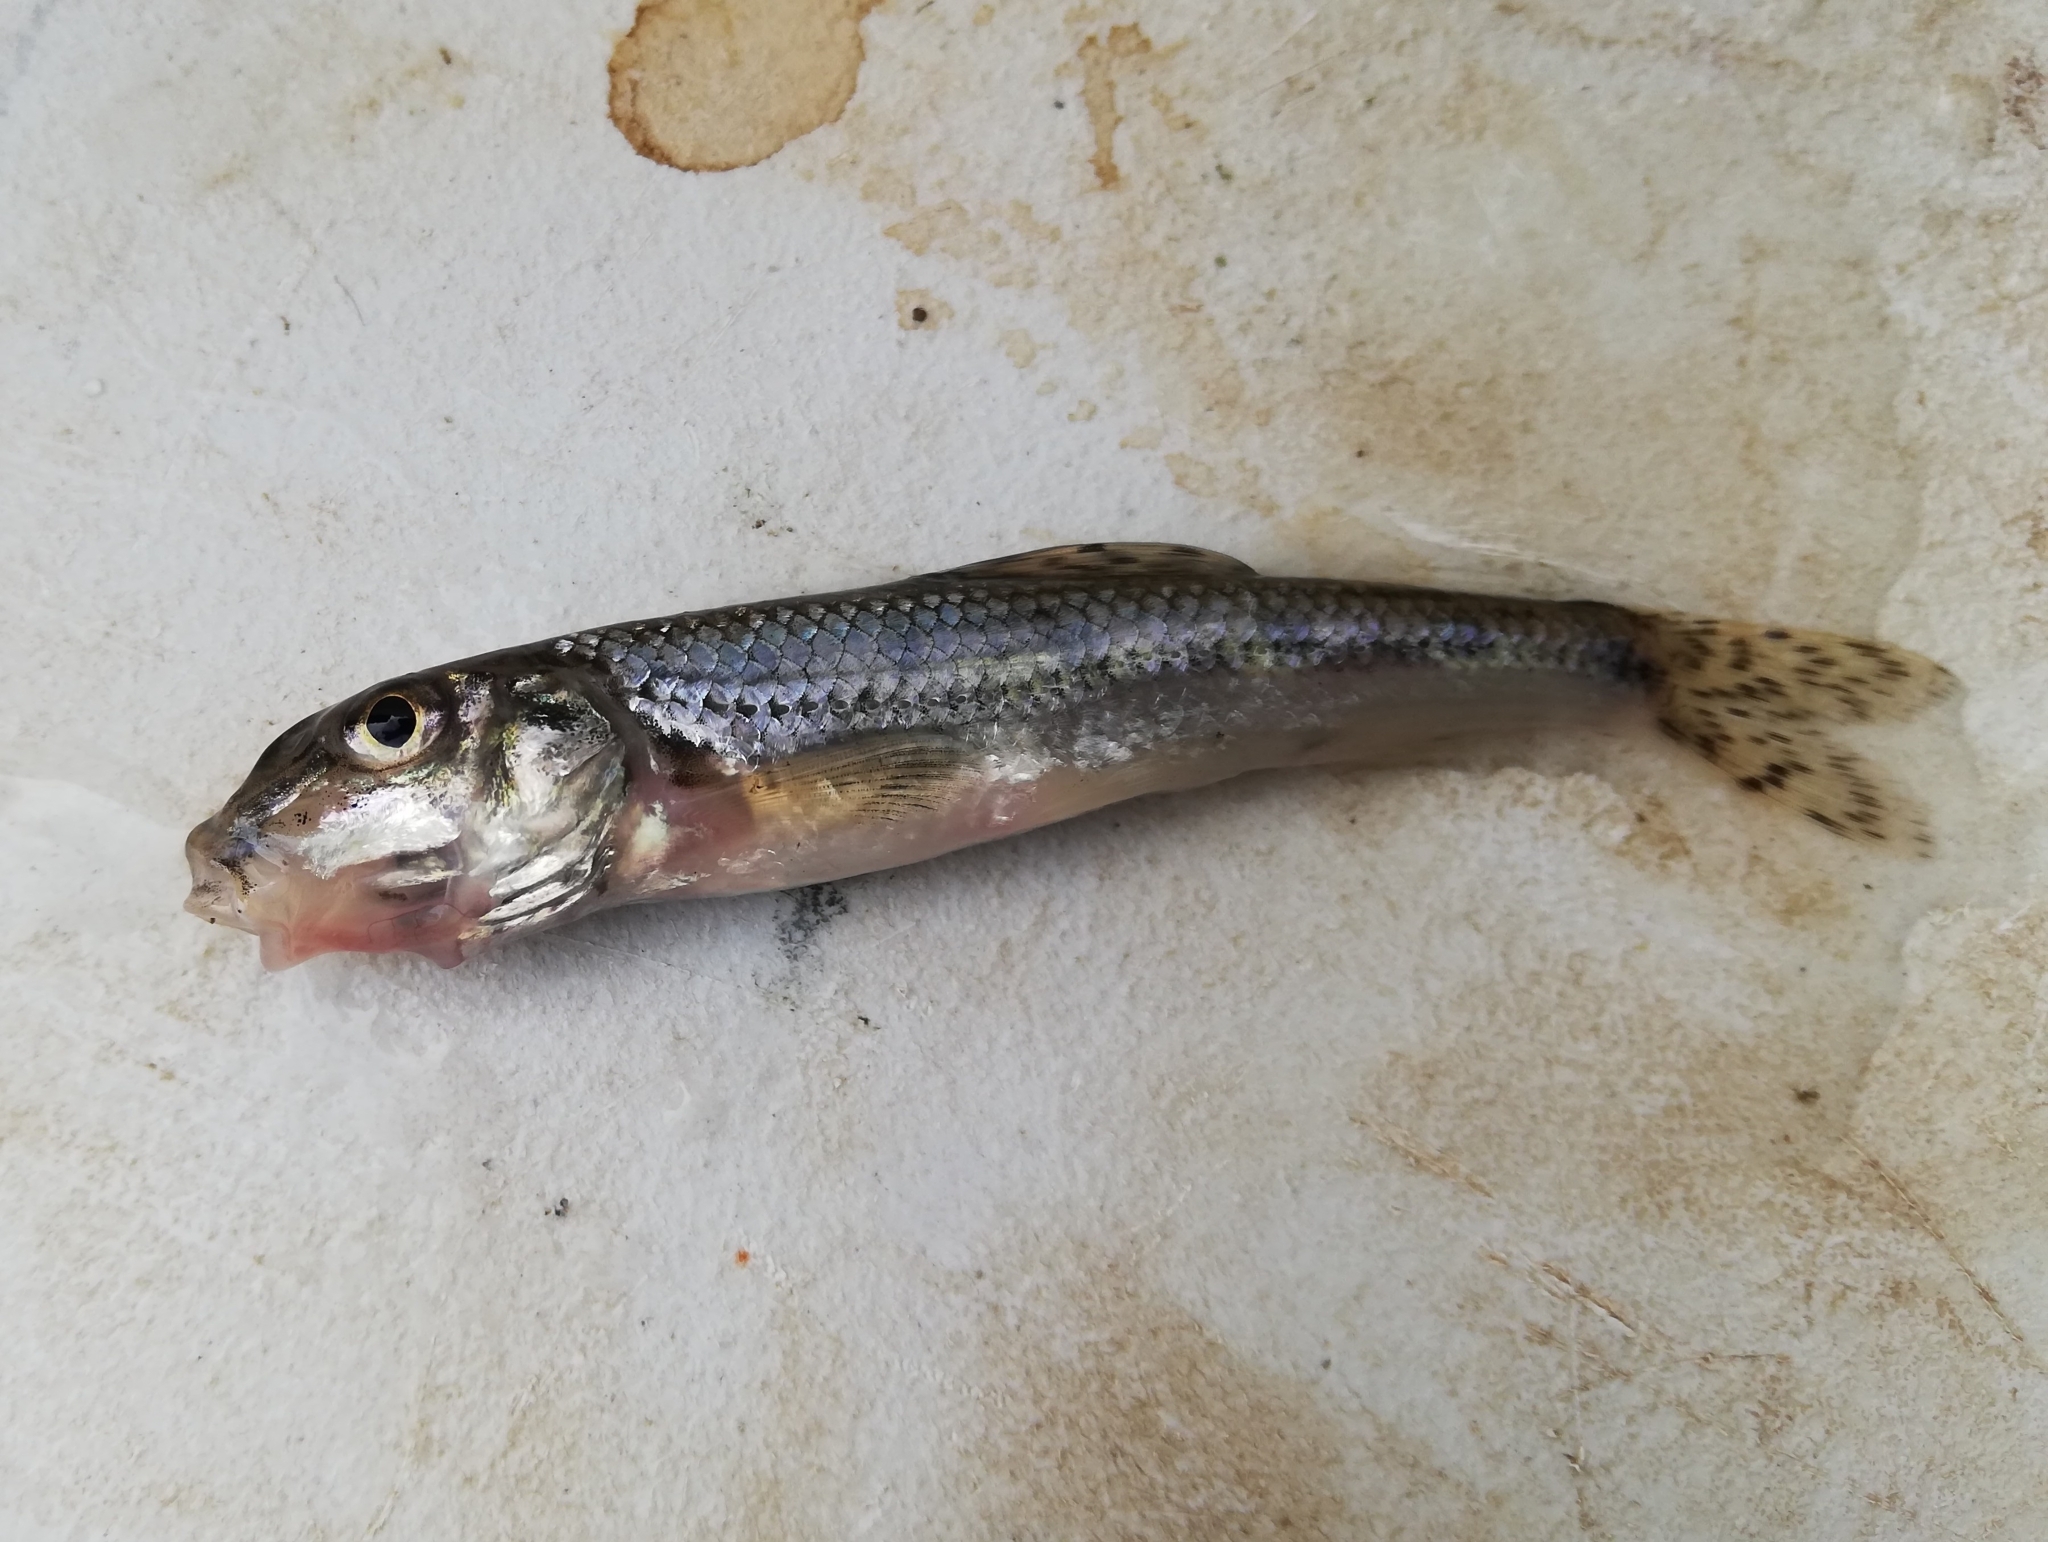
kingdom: Animalia
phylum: Chordata
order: Cypriniformes
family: Cyprinidae
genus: Gobio
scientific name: Gobio gobio
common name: Gudgeon
